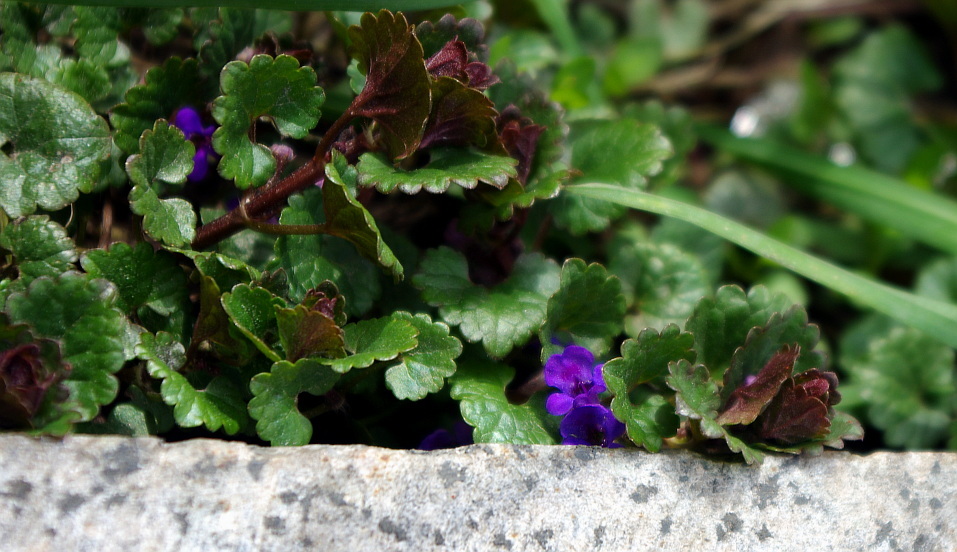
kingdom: Plantae
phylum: Tracheophyta
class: Magnoliopsida
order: Lamiales
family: Lamiaceae
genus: Glechoma
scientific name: Glechoma hederacea
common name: Ground ivy
